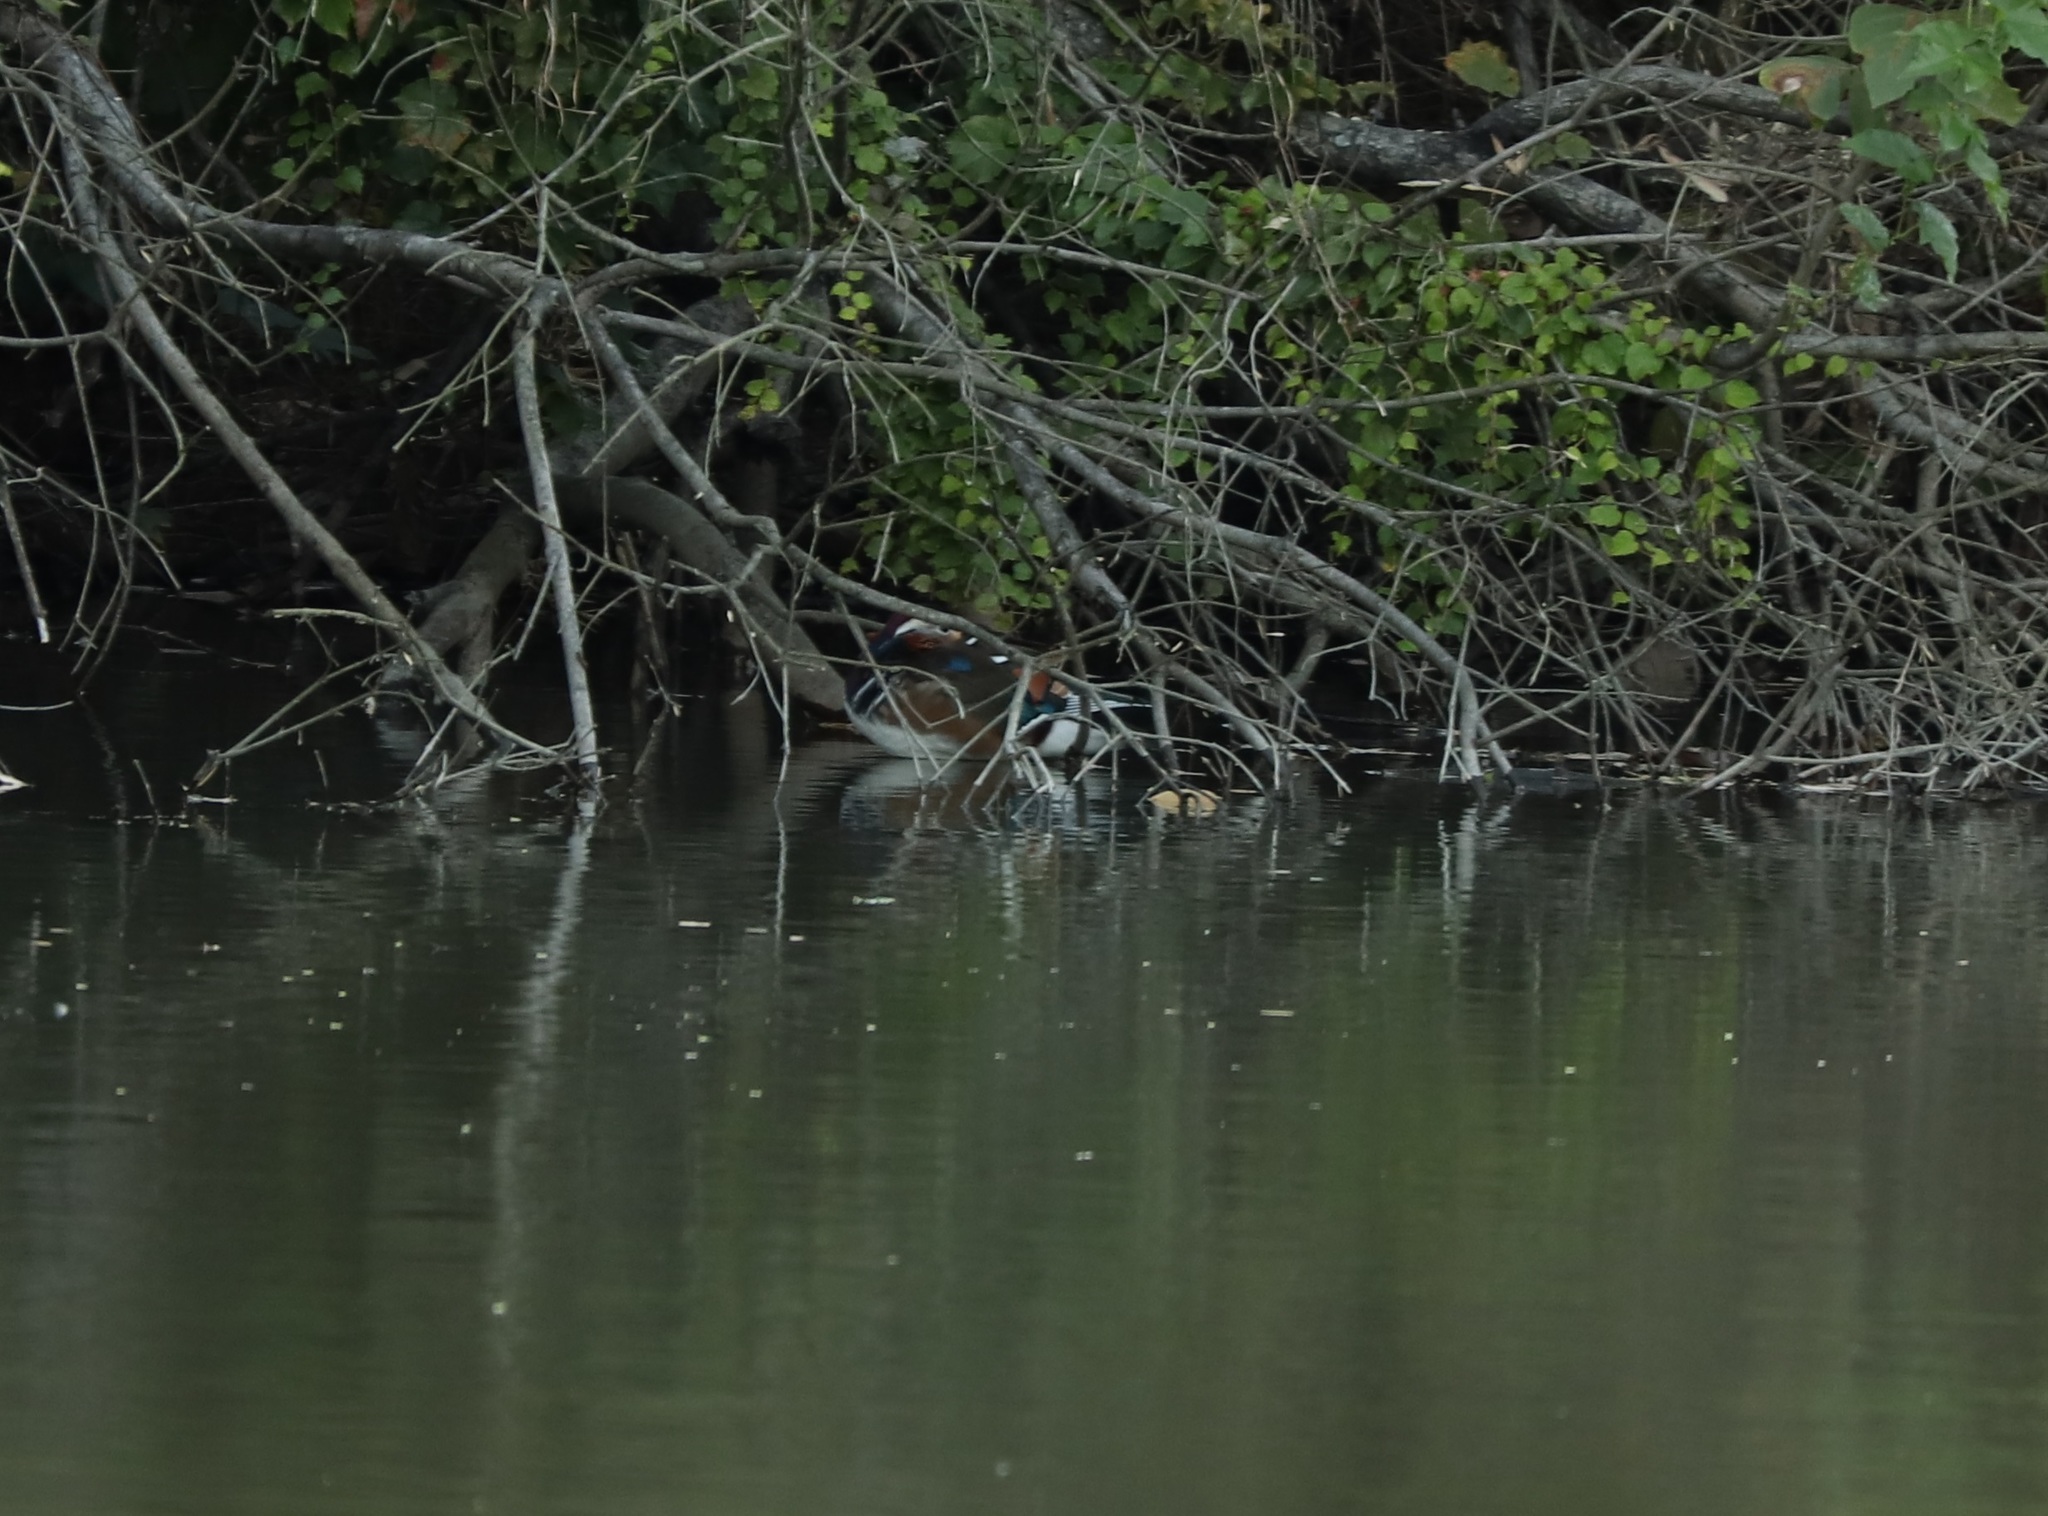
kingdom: Animalia
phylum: Chordata
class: Aves
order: Anseriformes
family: Anatidae
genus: Aix
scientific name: Aix galericulata
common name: Mandarin duck
